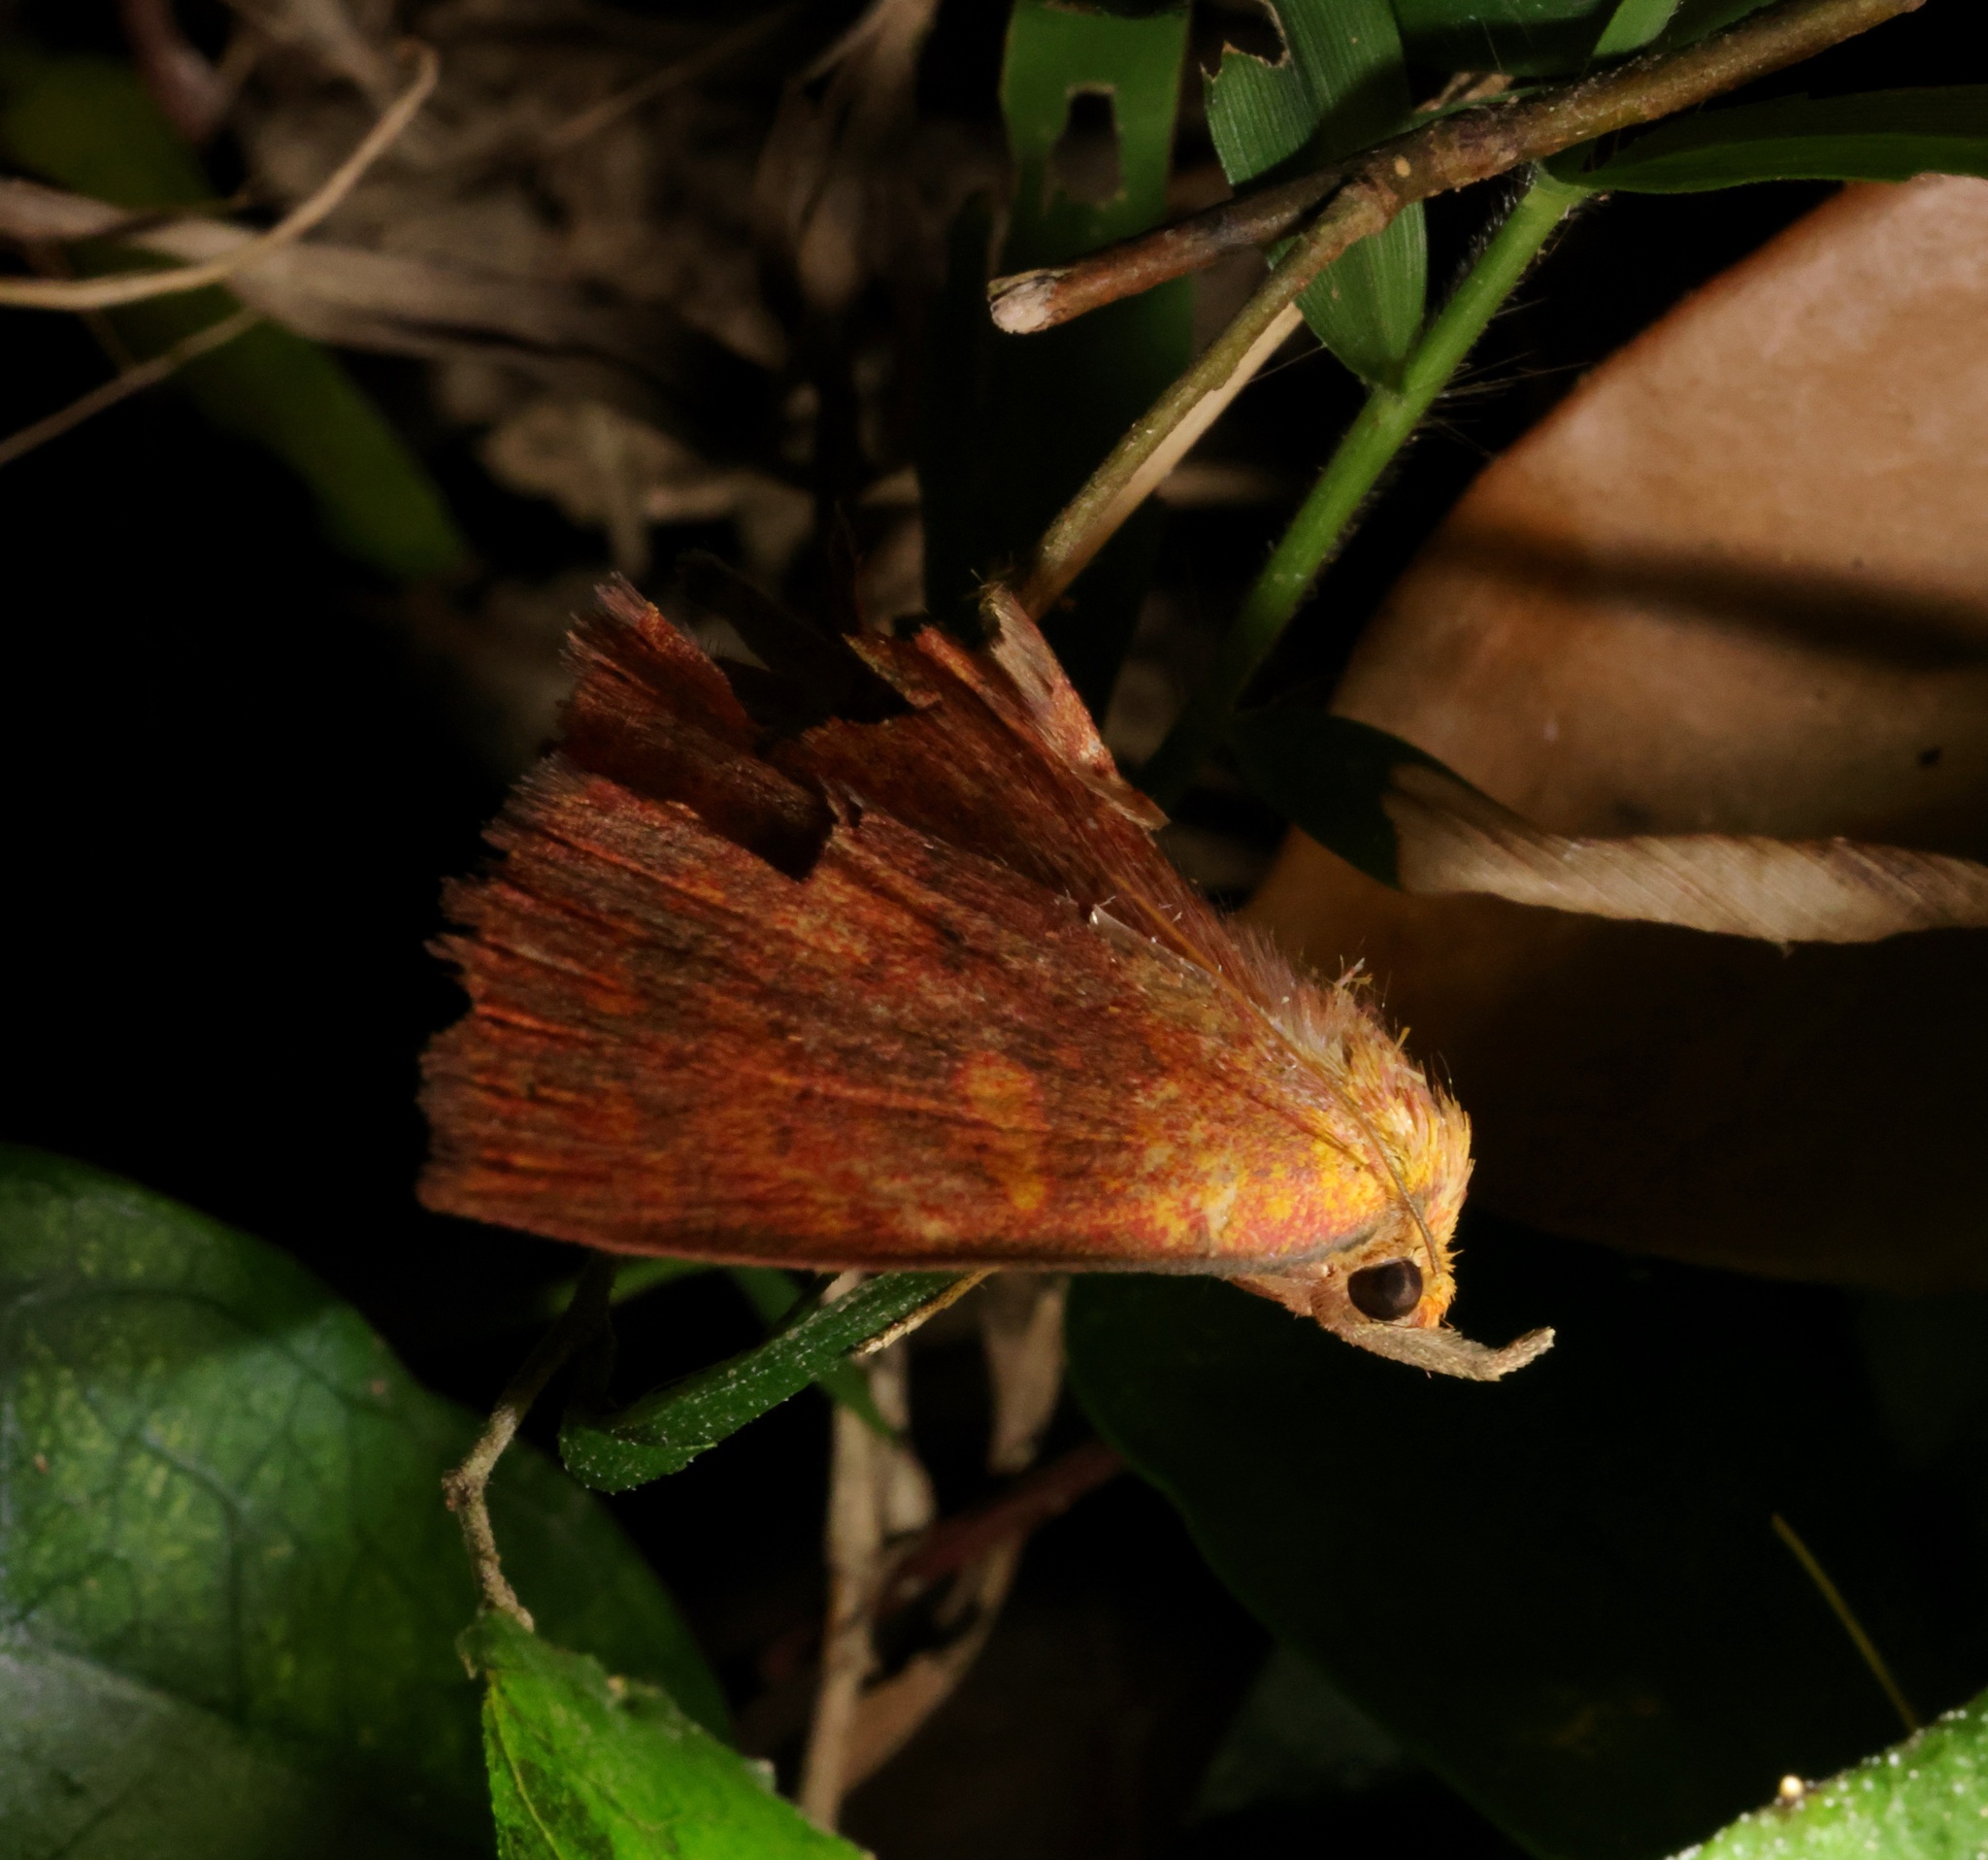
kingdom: Animalia
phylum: Arthropoda
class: Insecta
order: Lepidoptera
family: Erebidae
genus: Singara
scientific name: Singara diversalis
